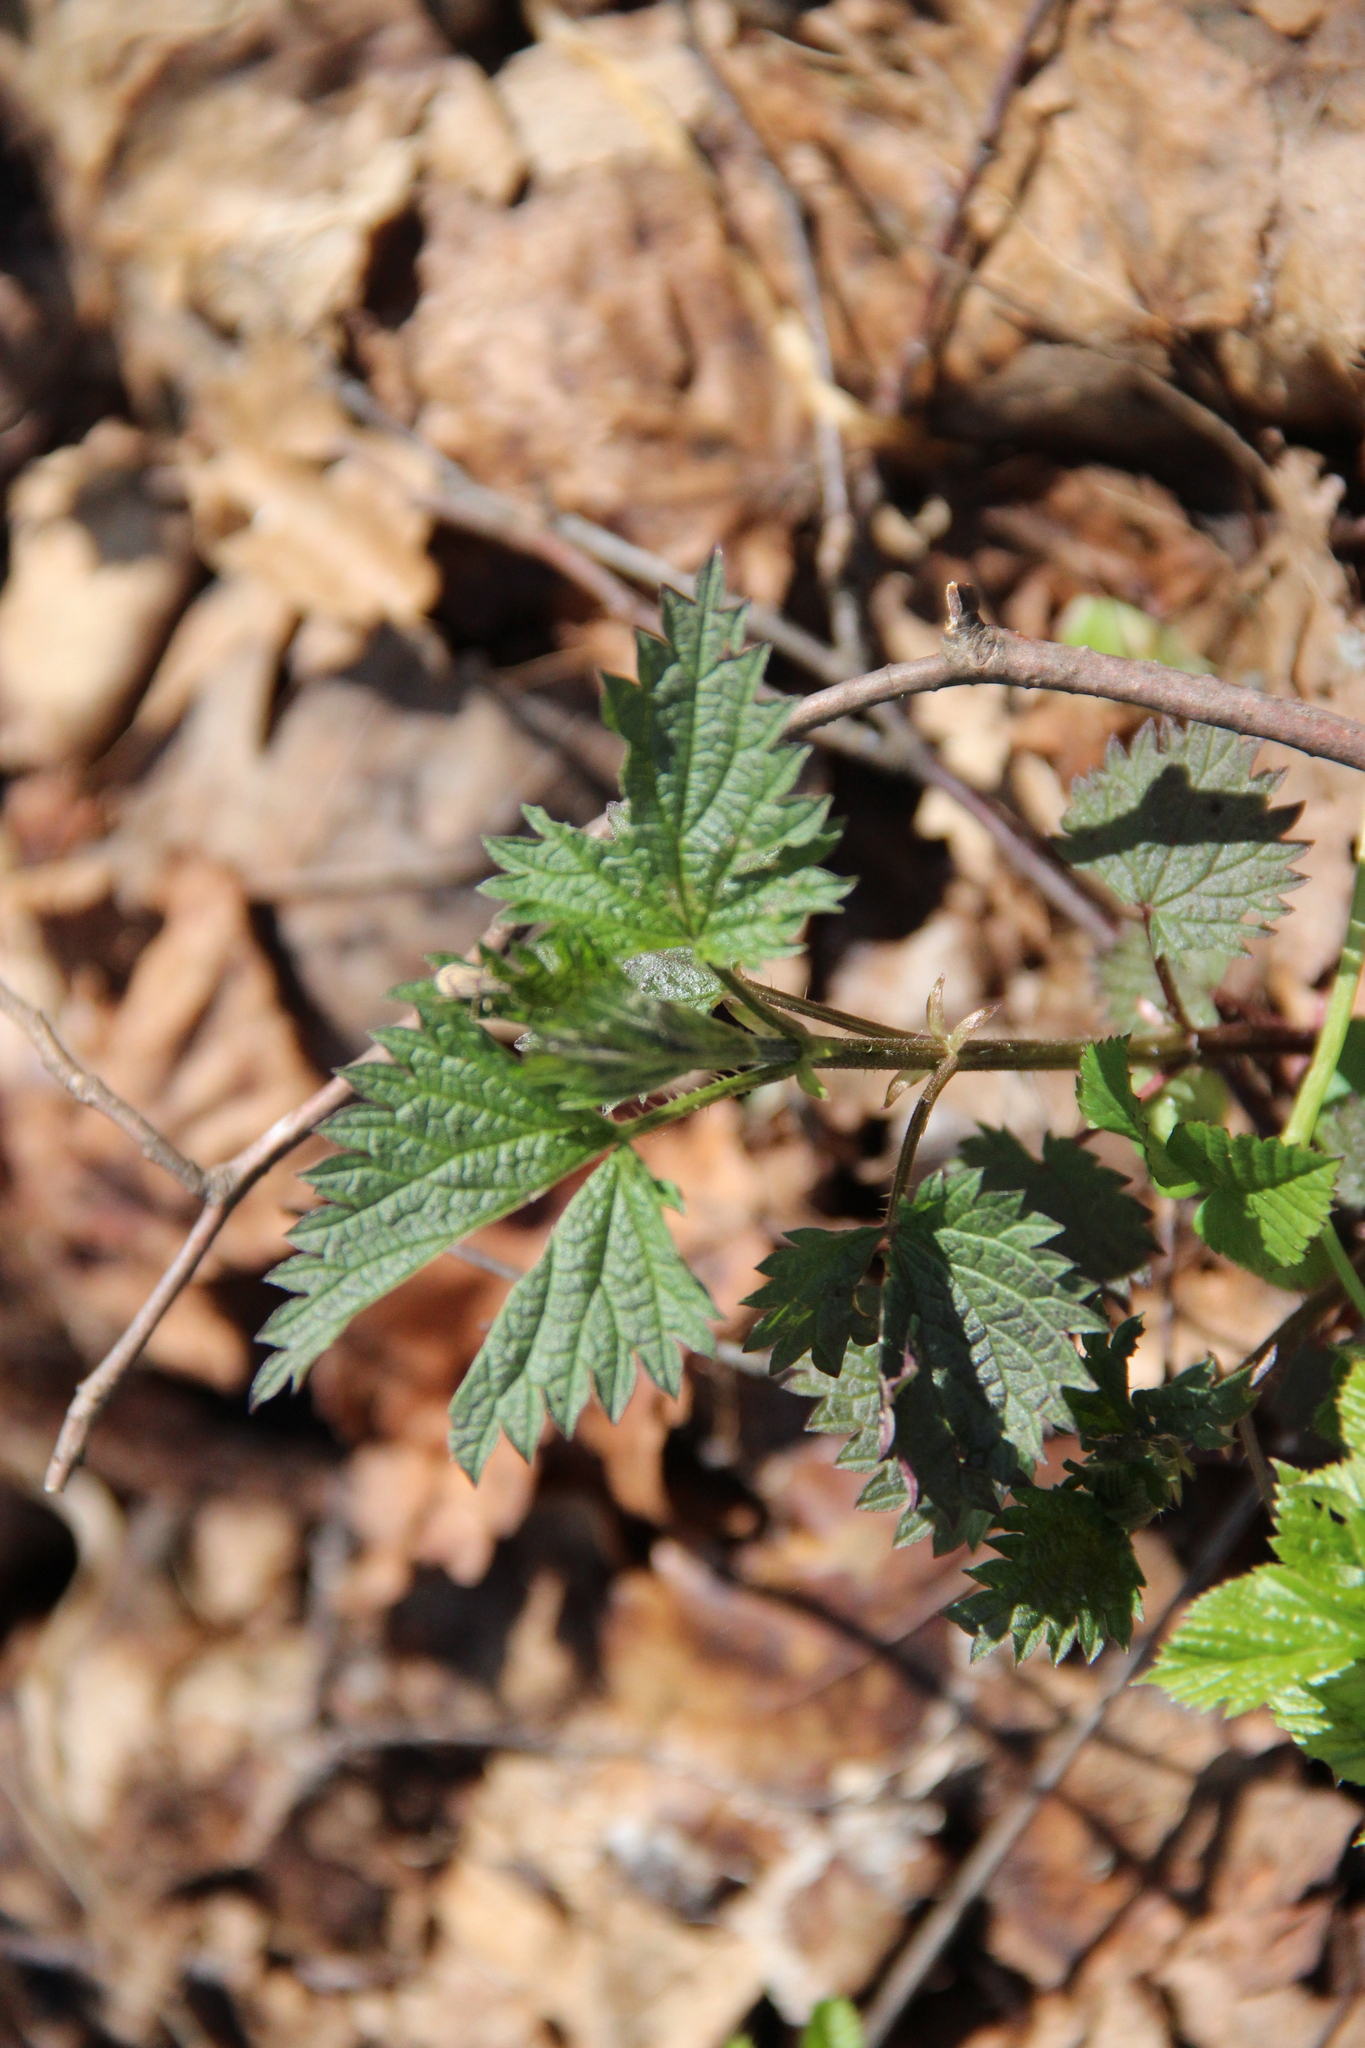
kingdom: Plantae
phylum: Tracheophyta
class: Magnoliopsida
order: Rosales
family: Urticaceae
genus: Urtica
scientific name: Urtica dioica
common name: Common nettle
